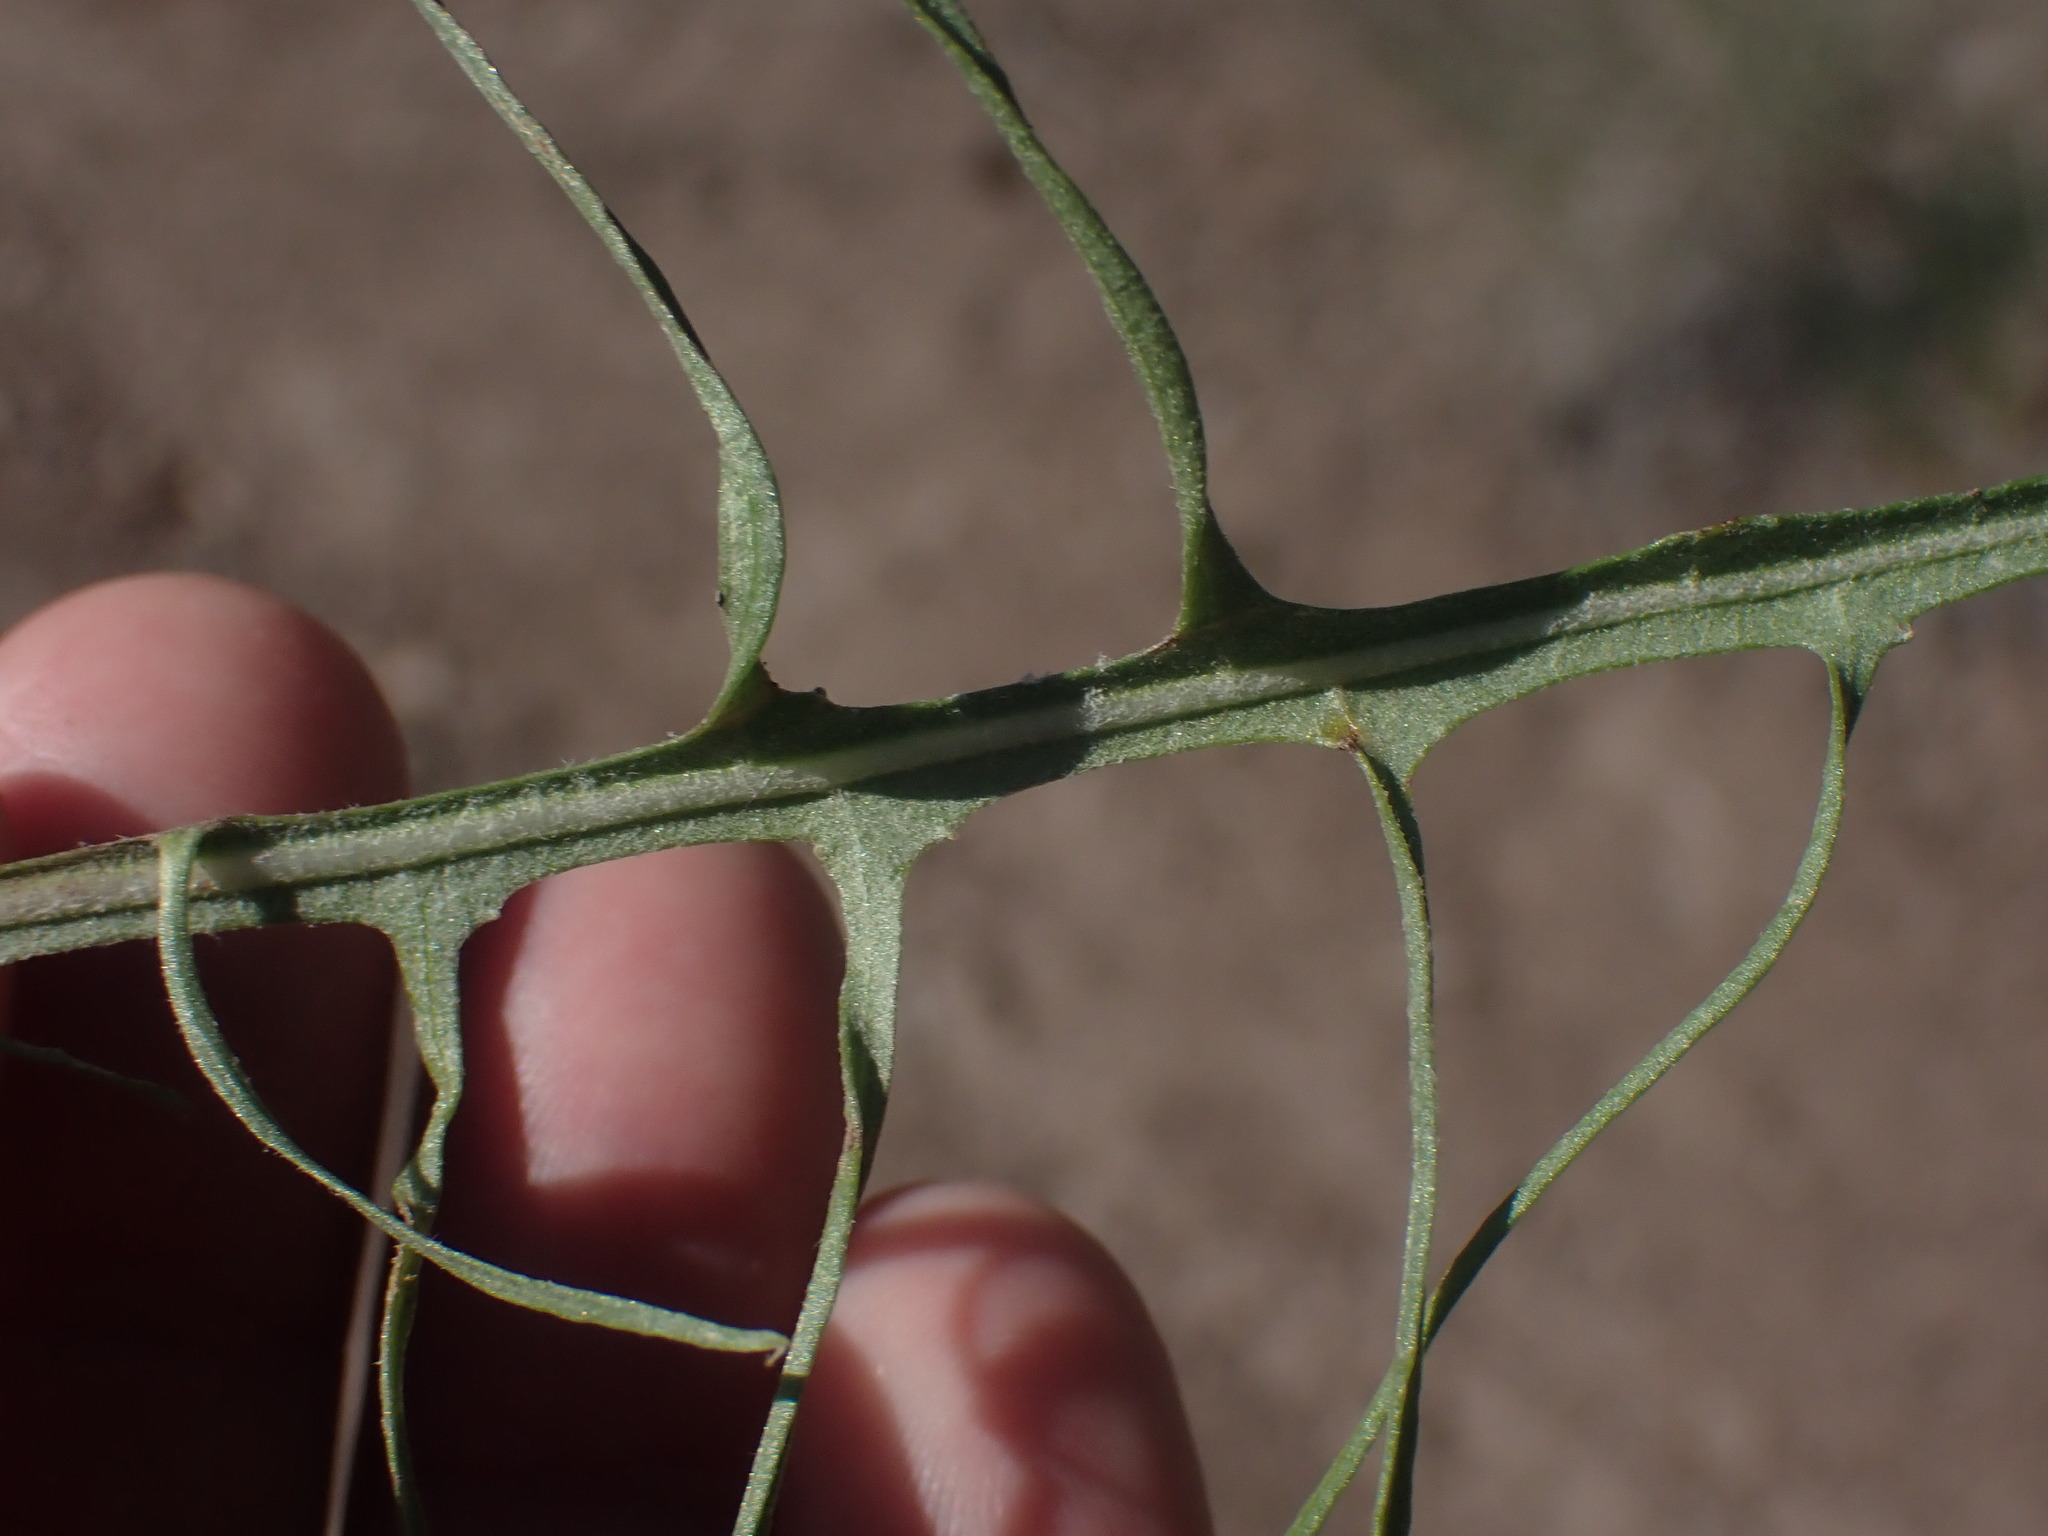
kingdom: Plantae
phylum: Tracheophyta
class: Magnoliopsida
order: Asterales
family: Asteraceae
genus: Crepis
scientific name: Crepis atribarba
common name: Dark hawk's-beard
